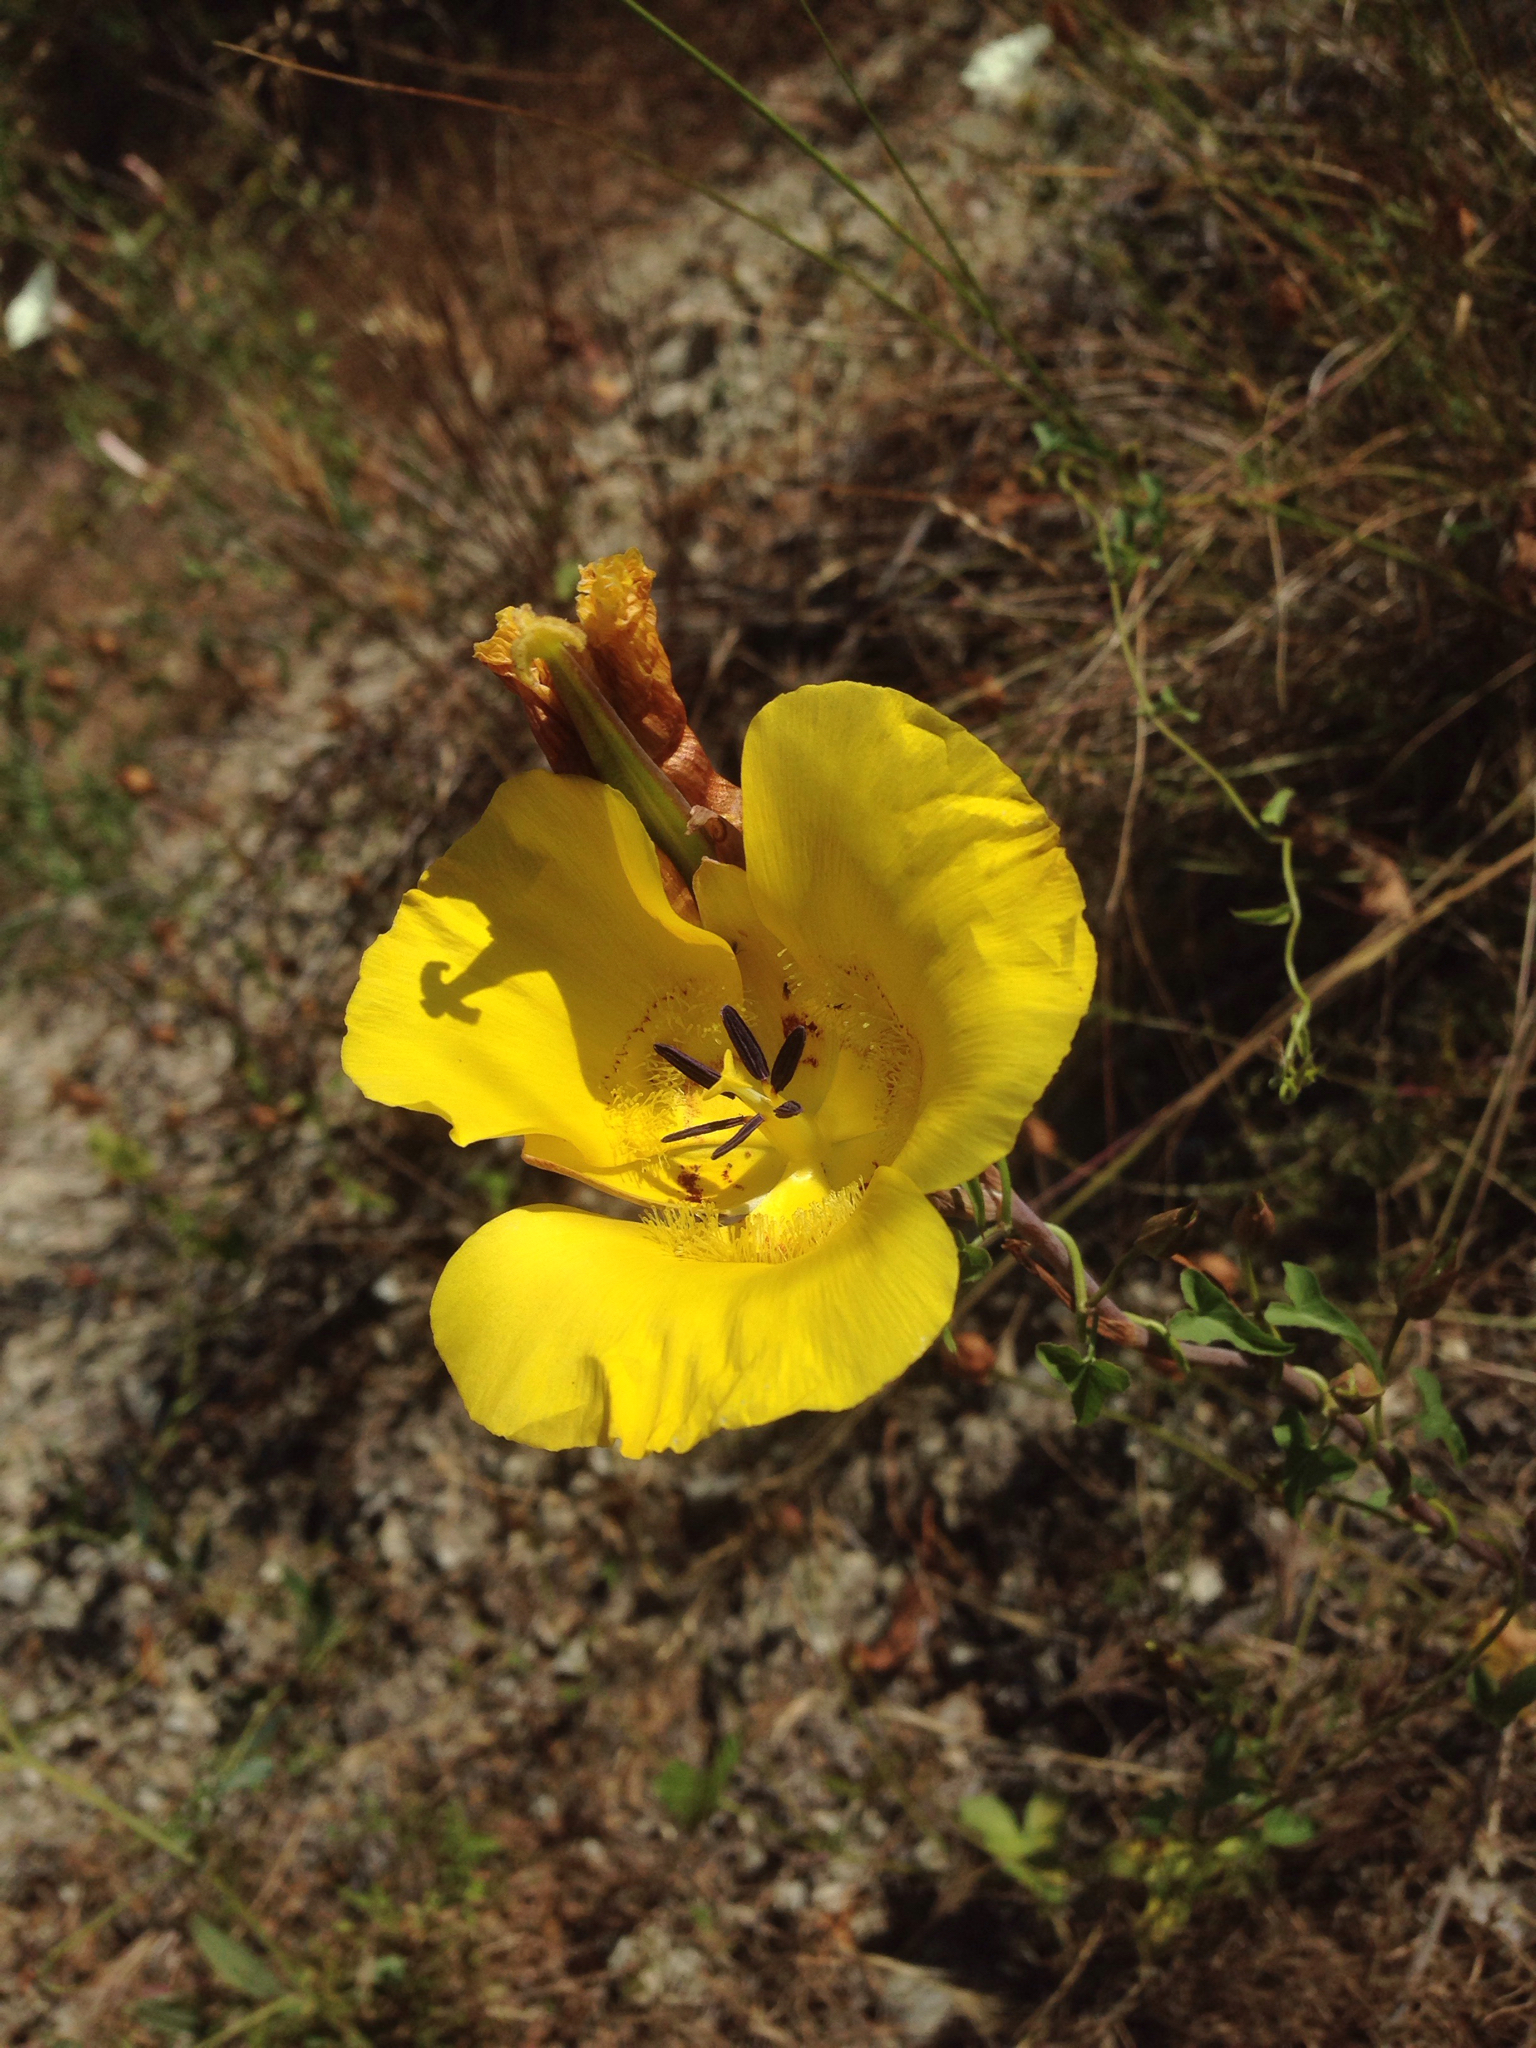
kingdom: Plantae
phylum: Tracheophyta
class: Liliopsida
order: Liliales
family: Liliaceae
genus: Calochortus
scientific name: Calochortus clavatus
